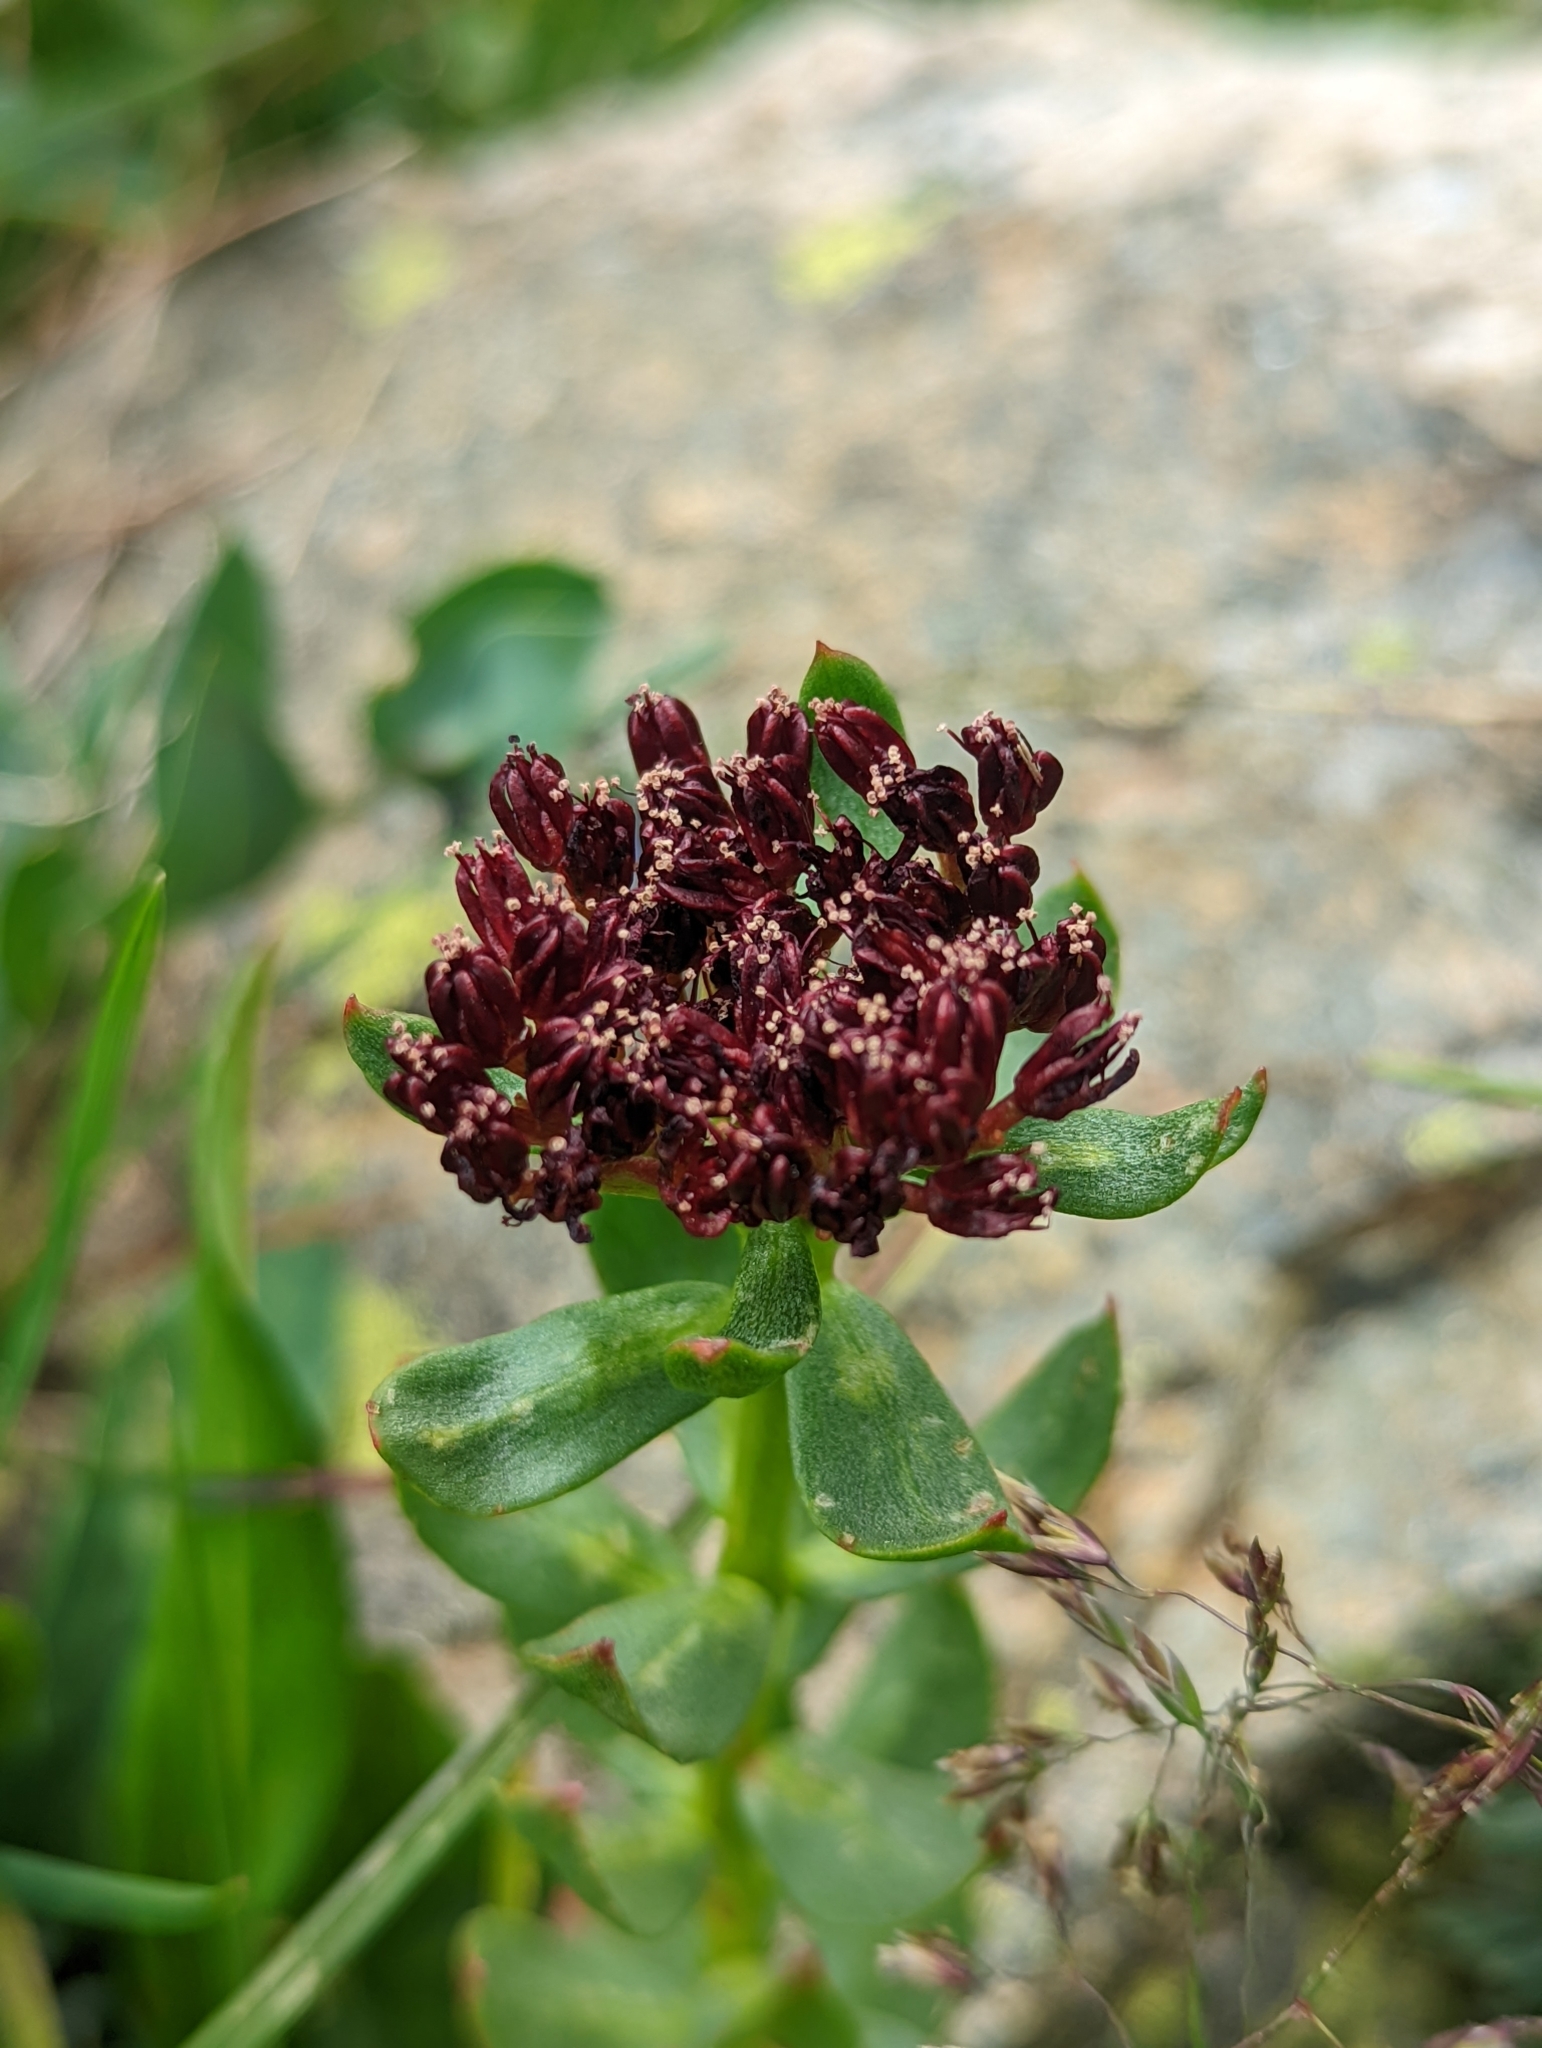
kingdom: Plantae
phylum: Tracheophyta
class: Magnoliopsida
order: Saxifragales
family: Crassulaceae
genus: Rhodiola
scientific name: Rhodiola integrifolia
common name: Western roseroot
